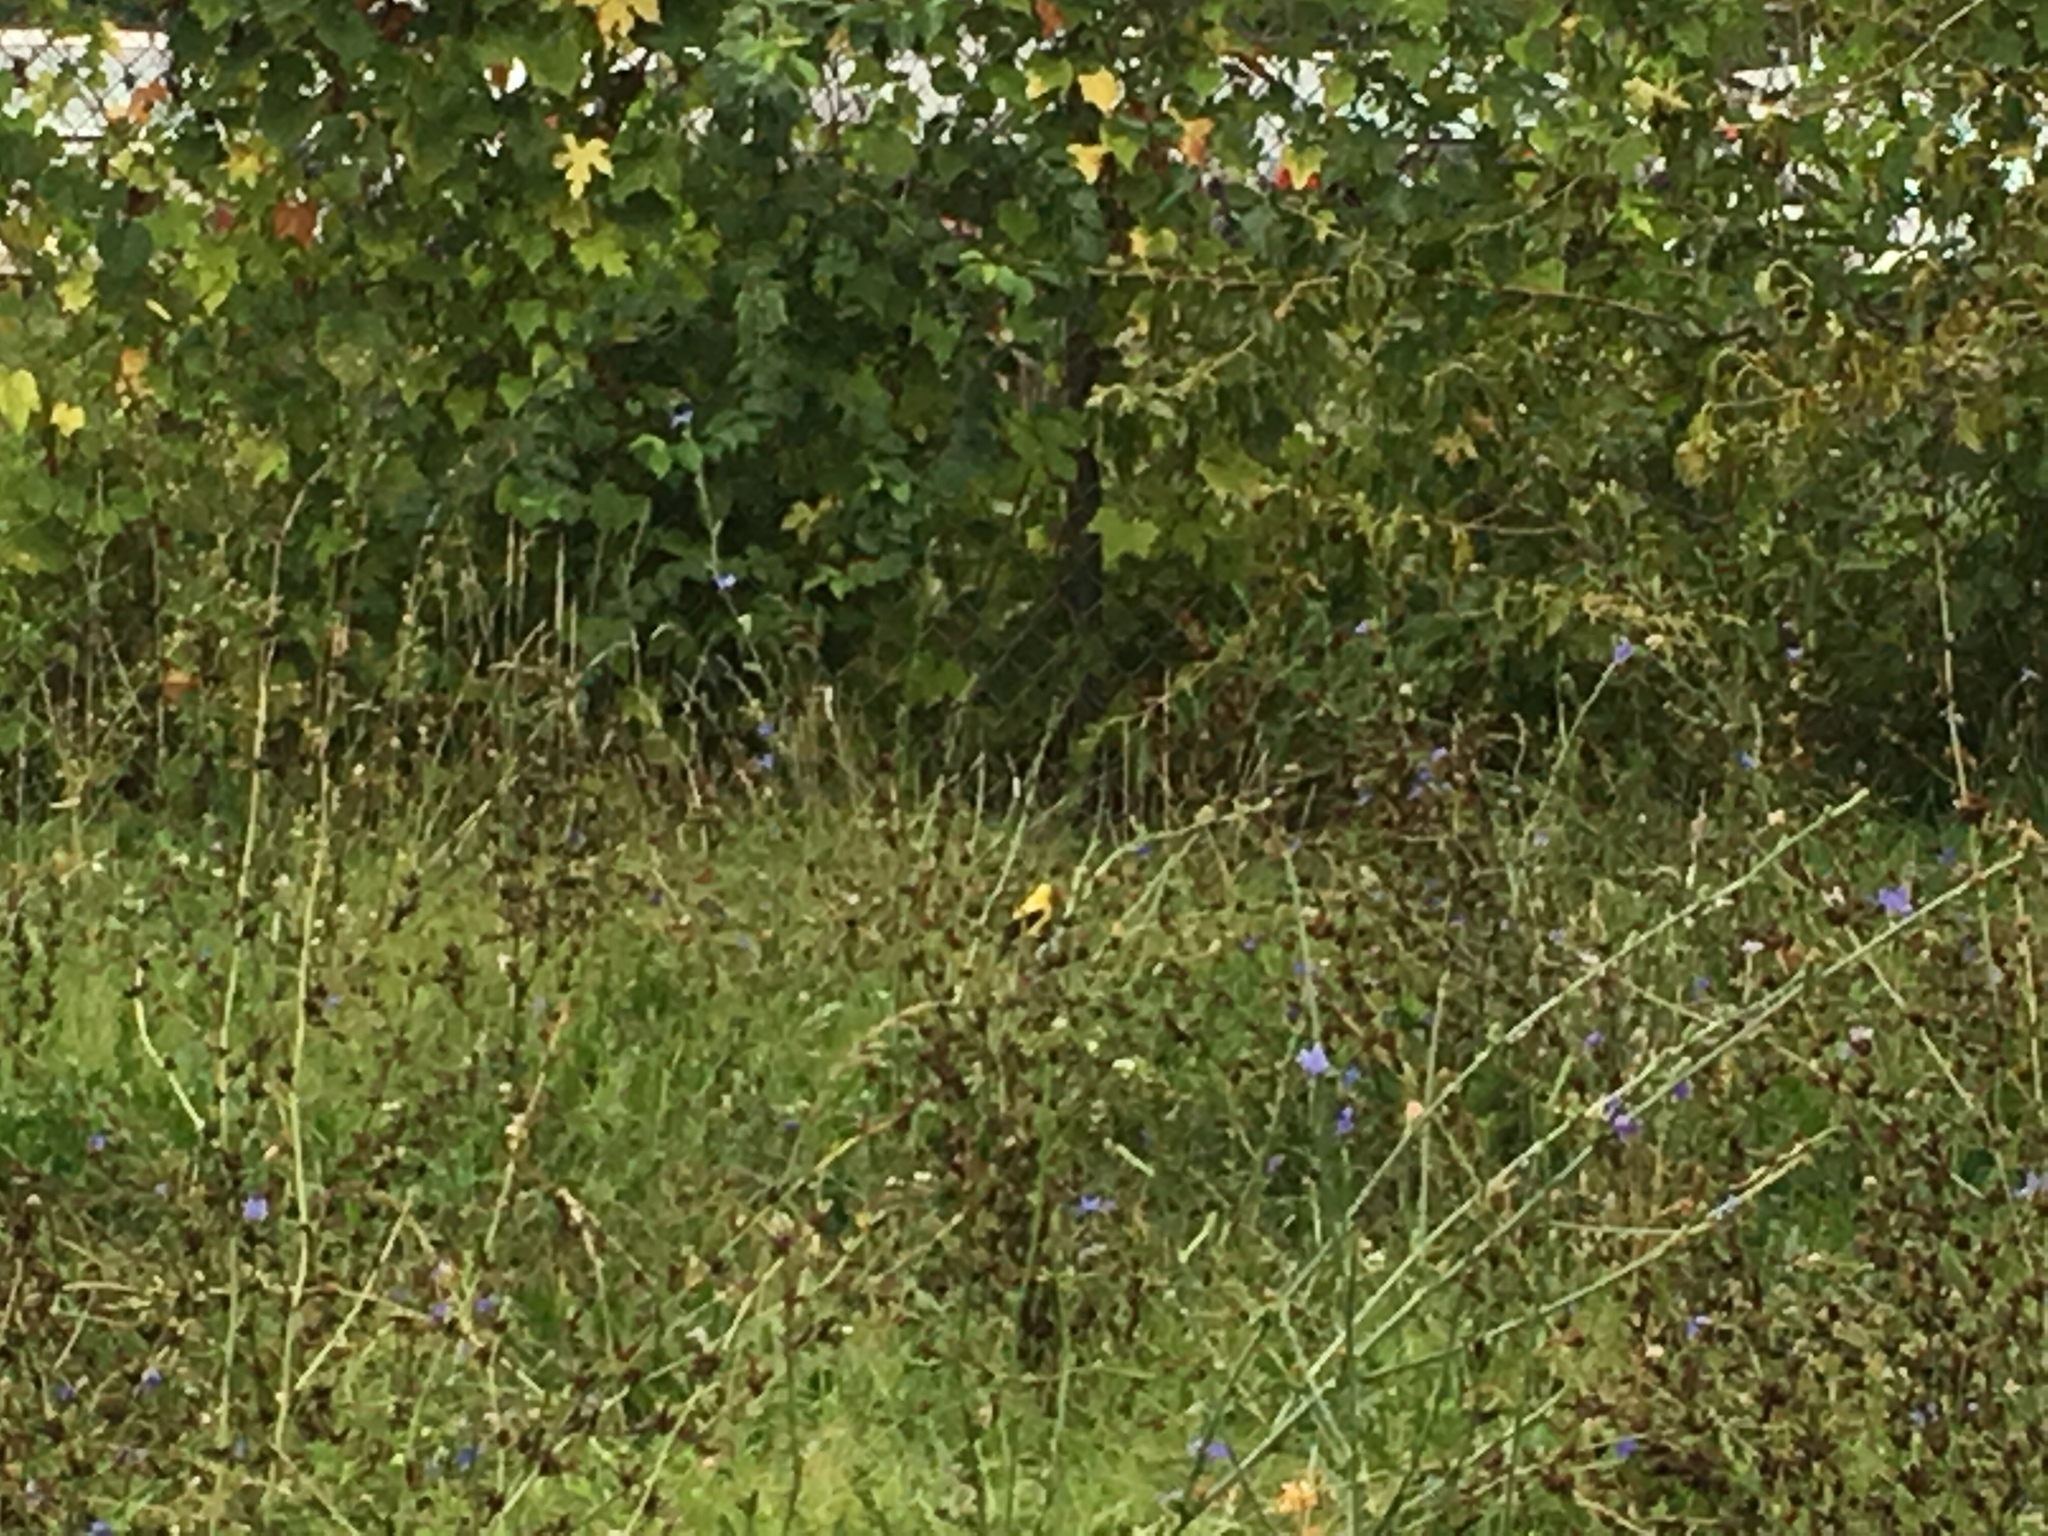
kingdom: Animalia
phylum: Chordata
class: Aves
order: Passeriformes
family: Fringillidae
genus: Spinus
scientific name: Spinus tristis
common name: American goldfinch
